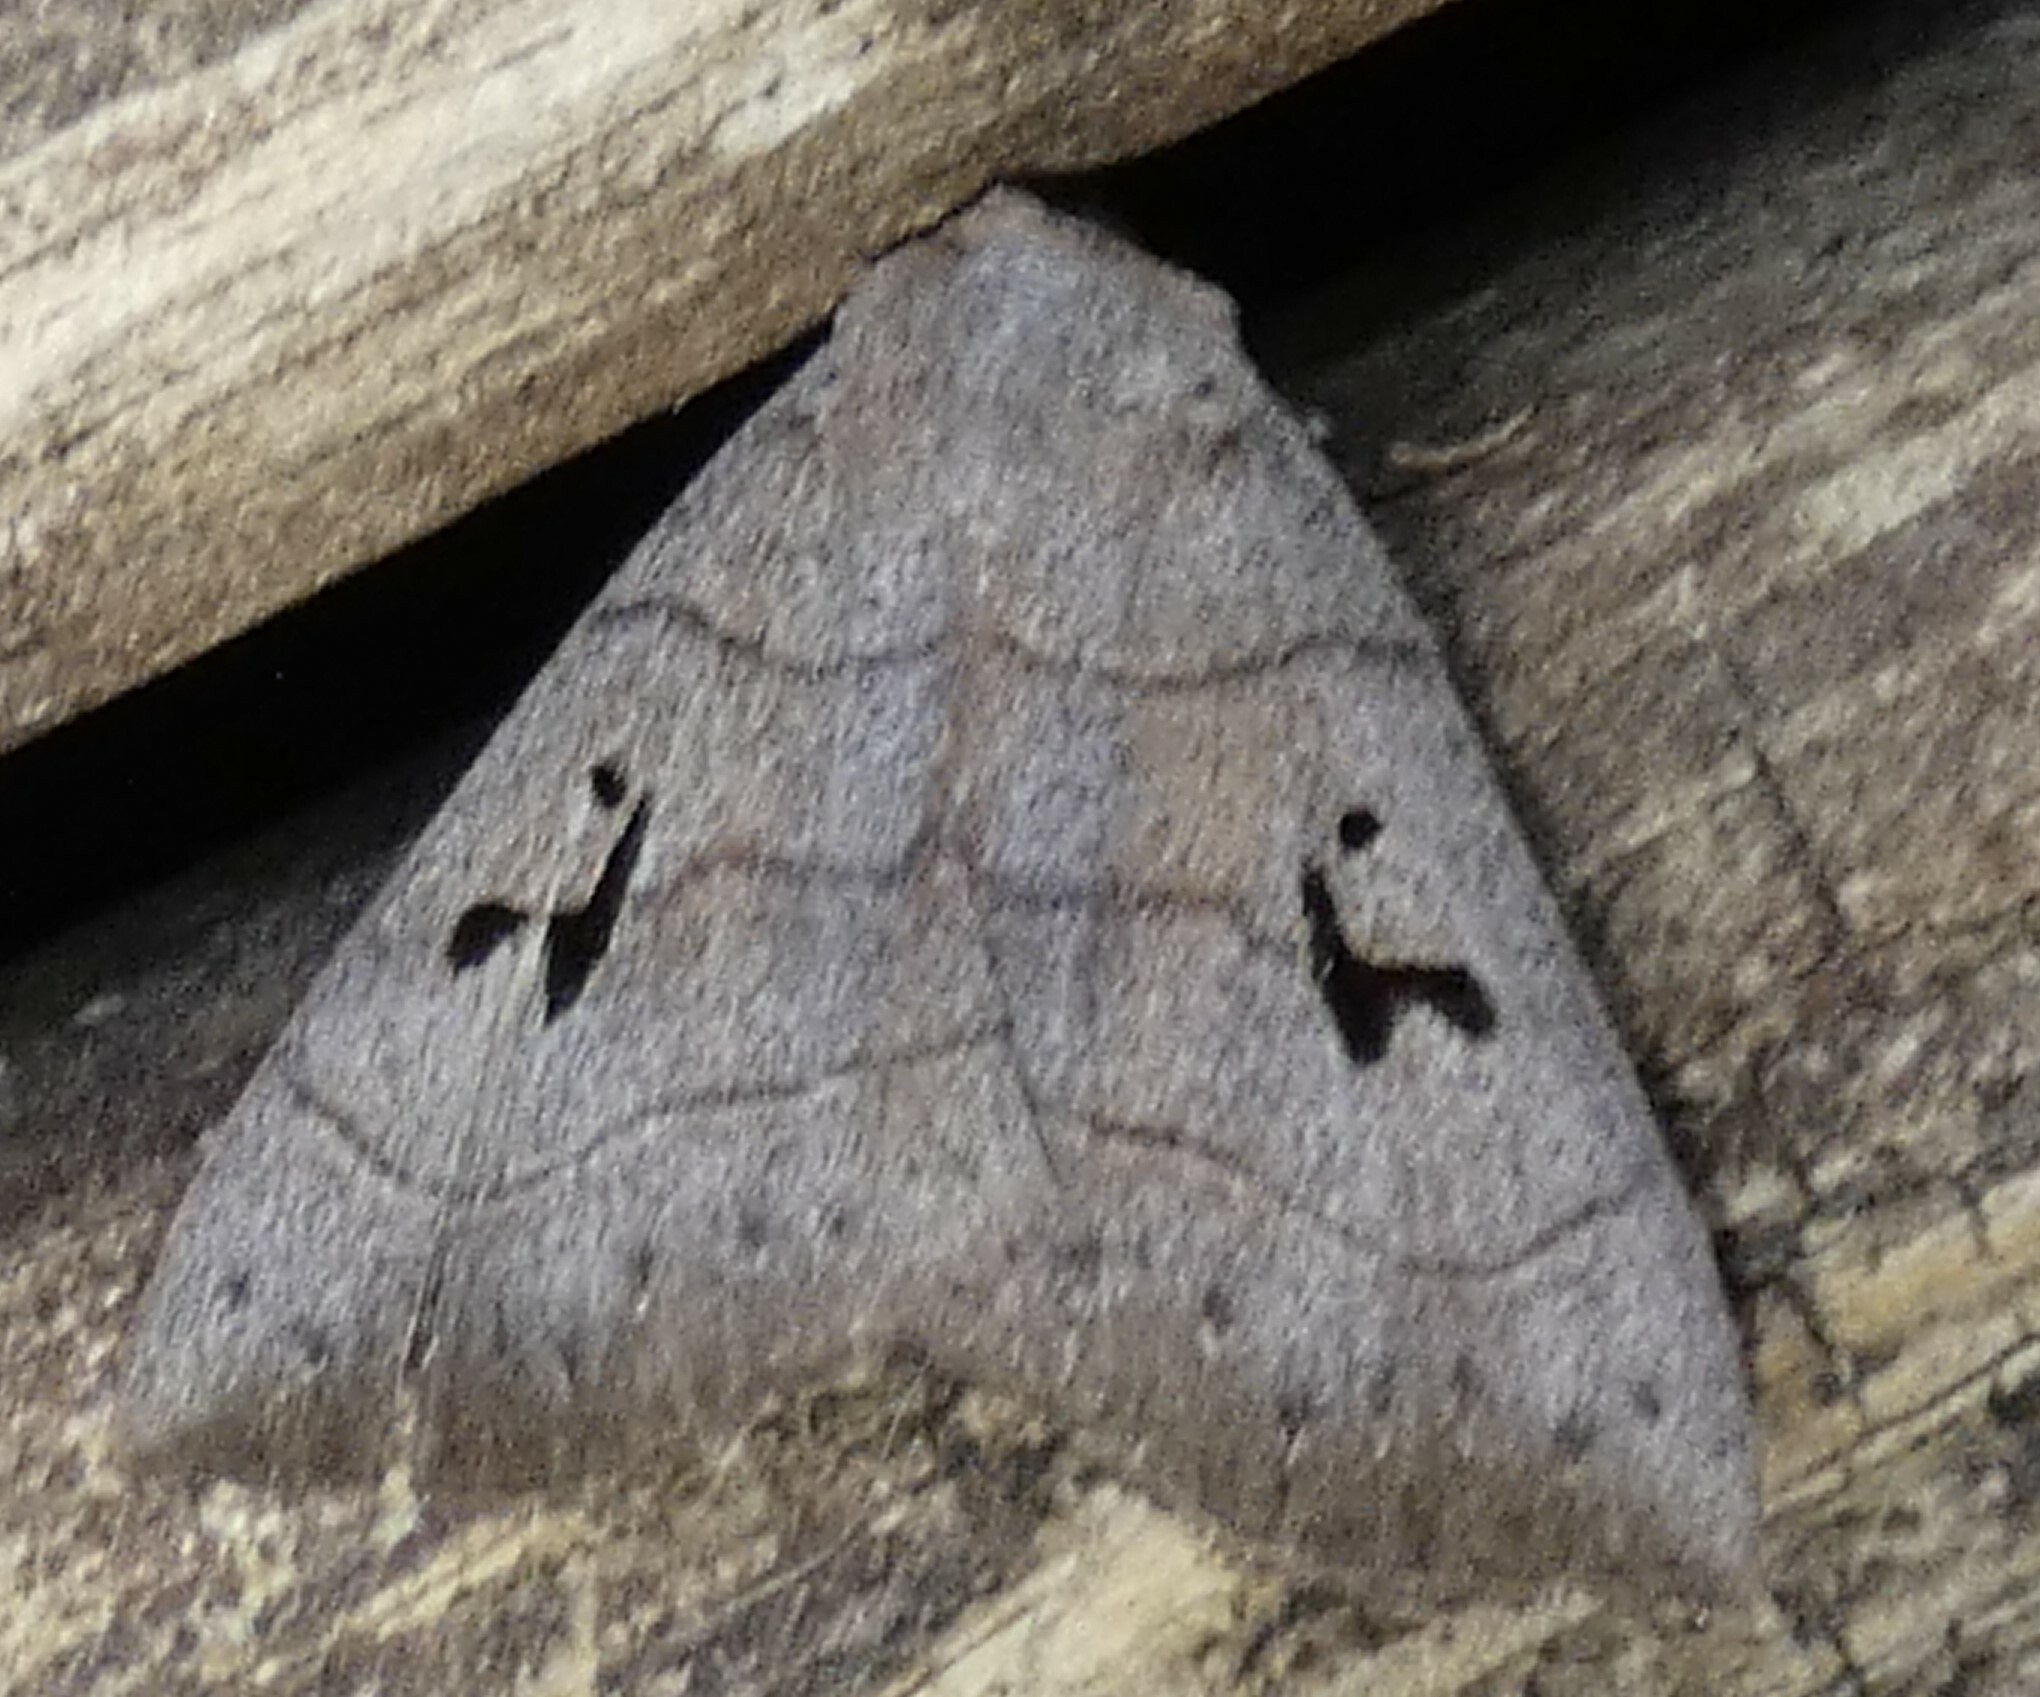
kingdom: Animalia
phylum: Arthropoda
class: Insecta
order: Lepidoptera
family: Erebidae
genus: Panopoda
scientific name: Panopoda carneicosta
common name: Brown panopoda moth
